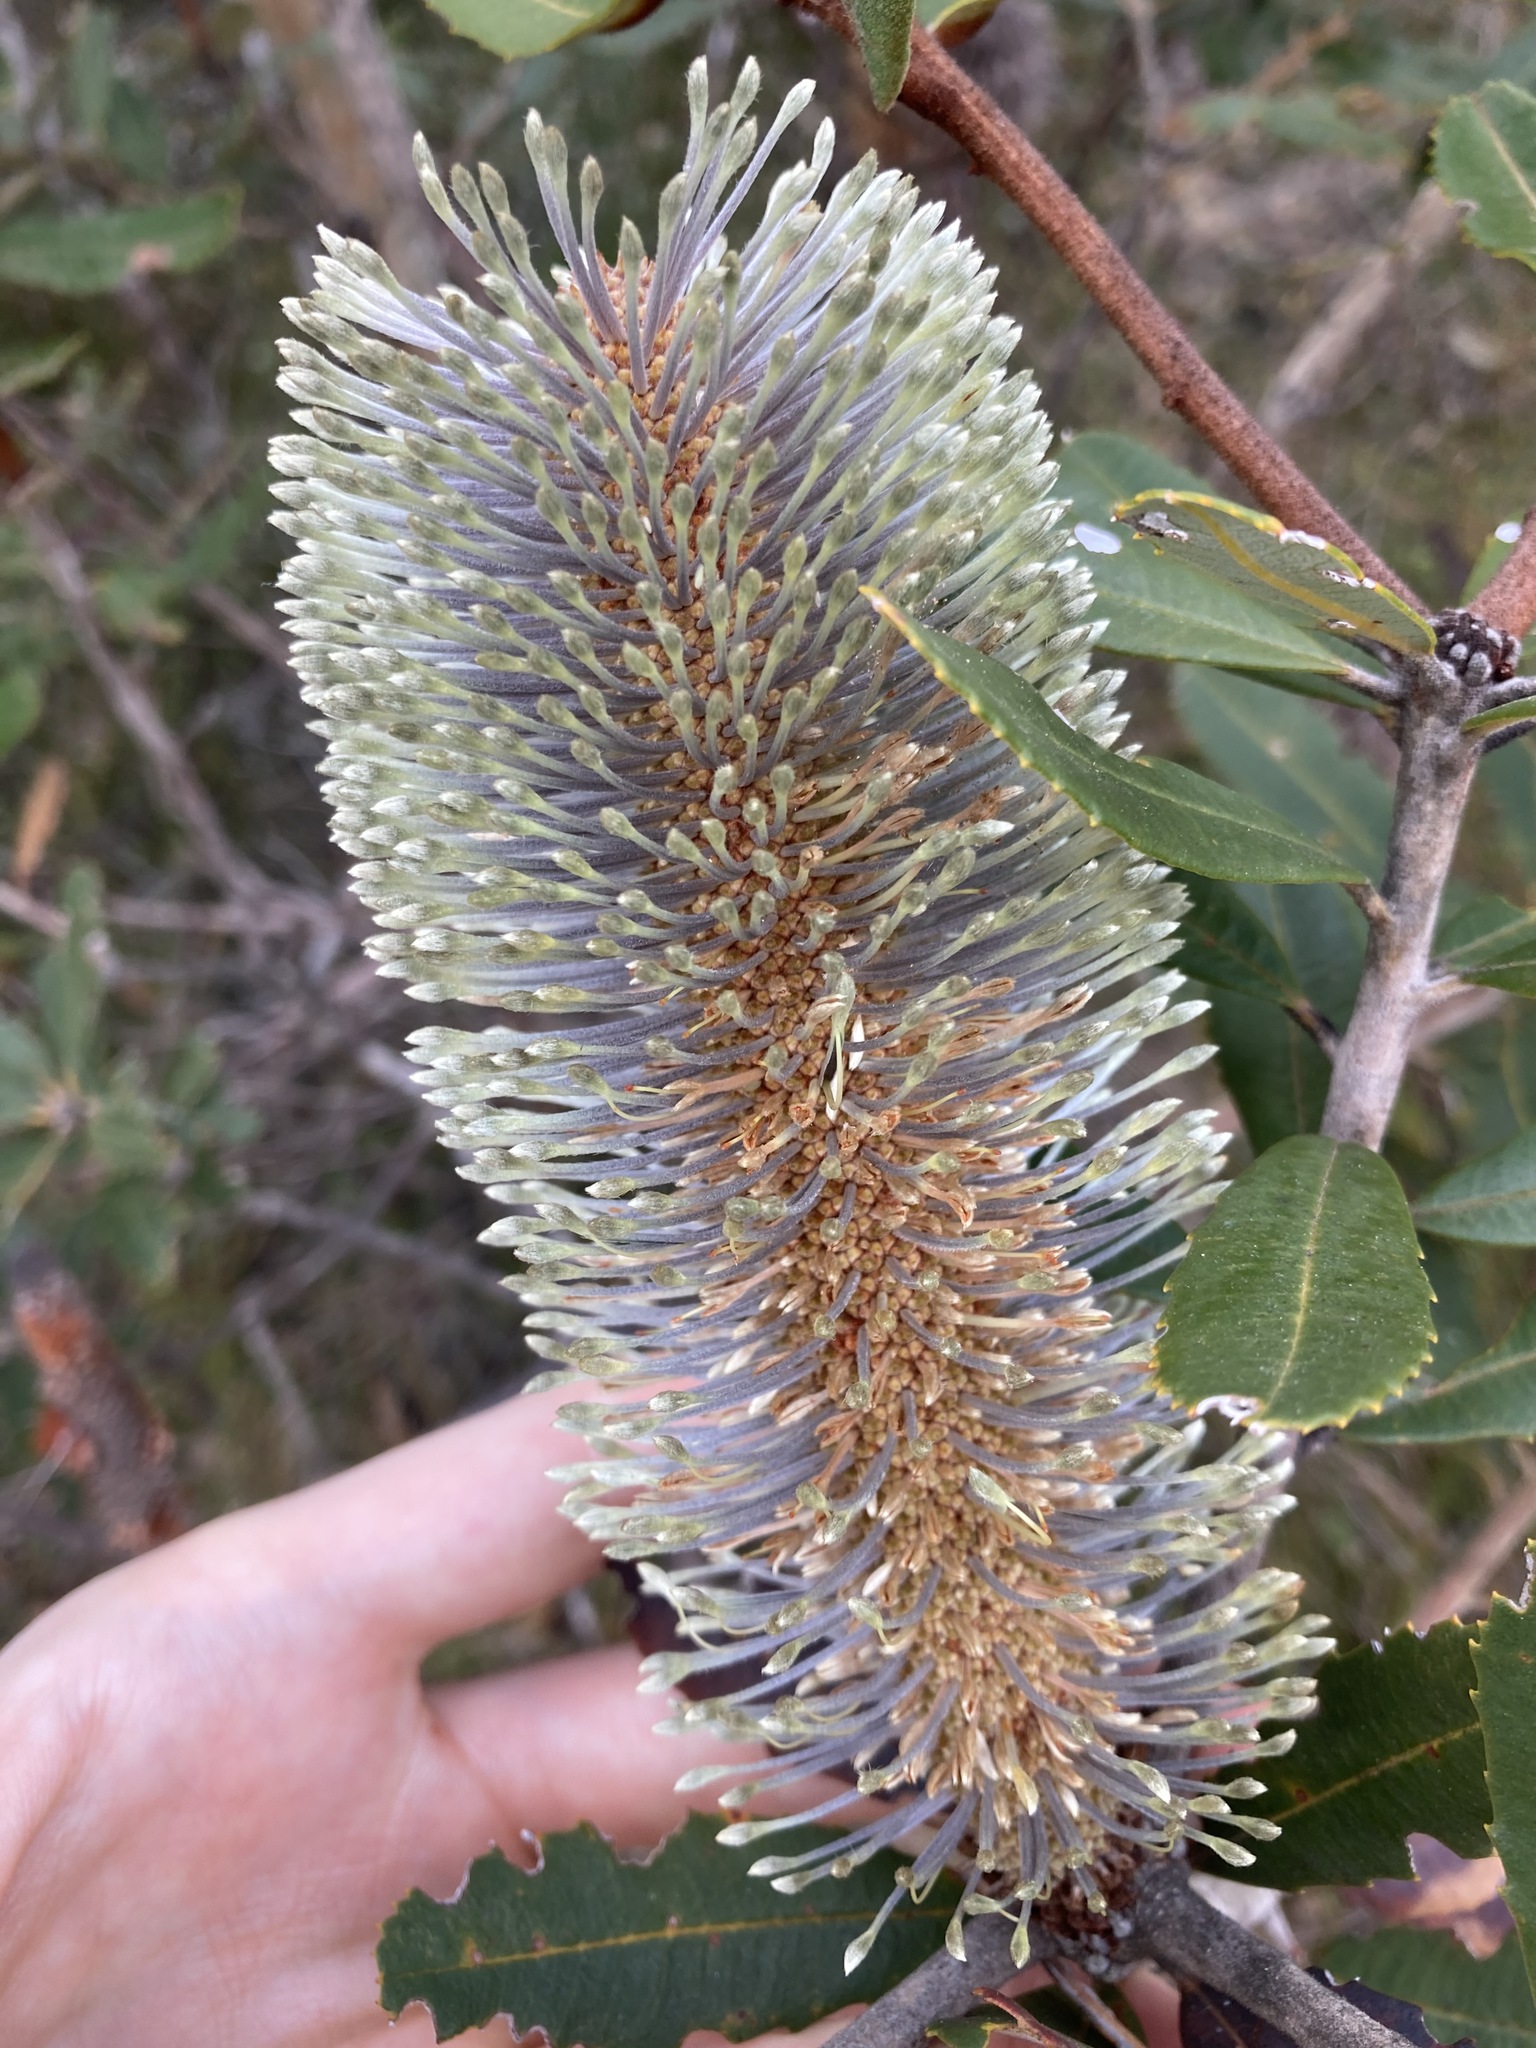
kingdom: Plantae
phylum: Tracheophyta
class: Magnoliopsida
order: Proteales
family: Proteaceae
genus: Banksia
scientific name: Banksia oblongifolia
